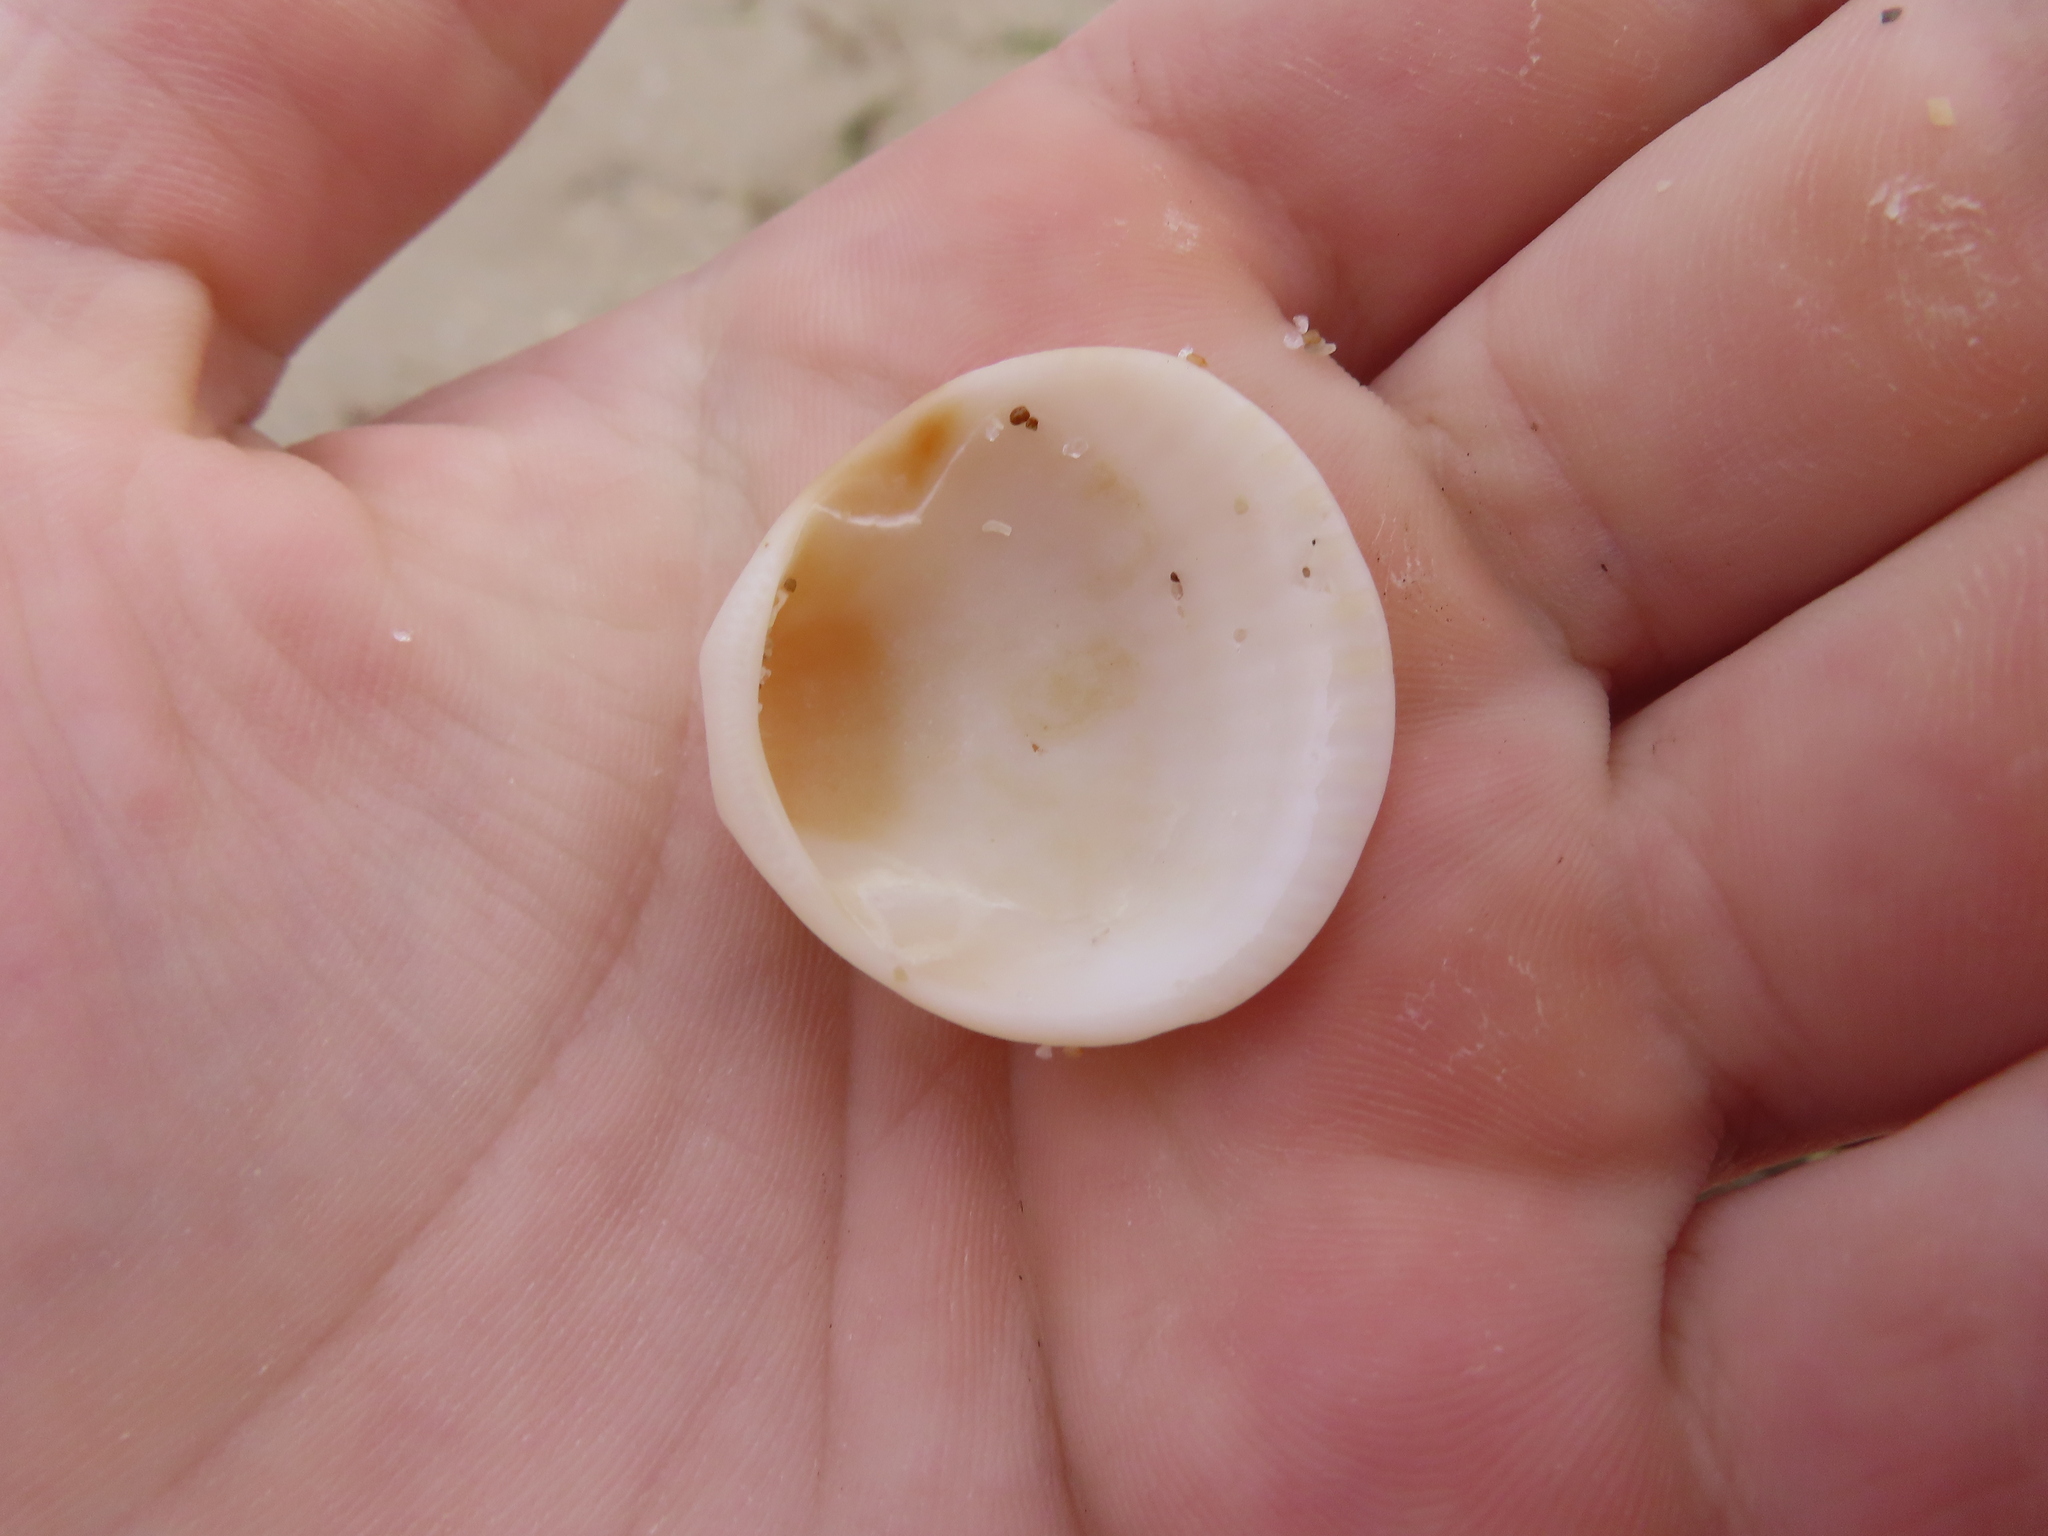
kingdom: Animalia
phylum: Mollusca
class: Bivalvia
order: Arcida
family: Glycymerididae
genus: Glycymeris
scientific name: Glycymeris spectralis
